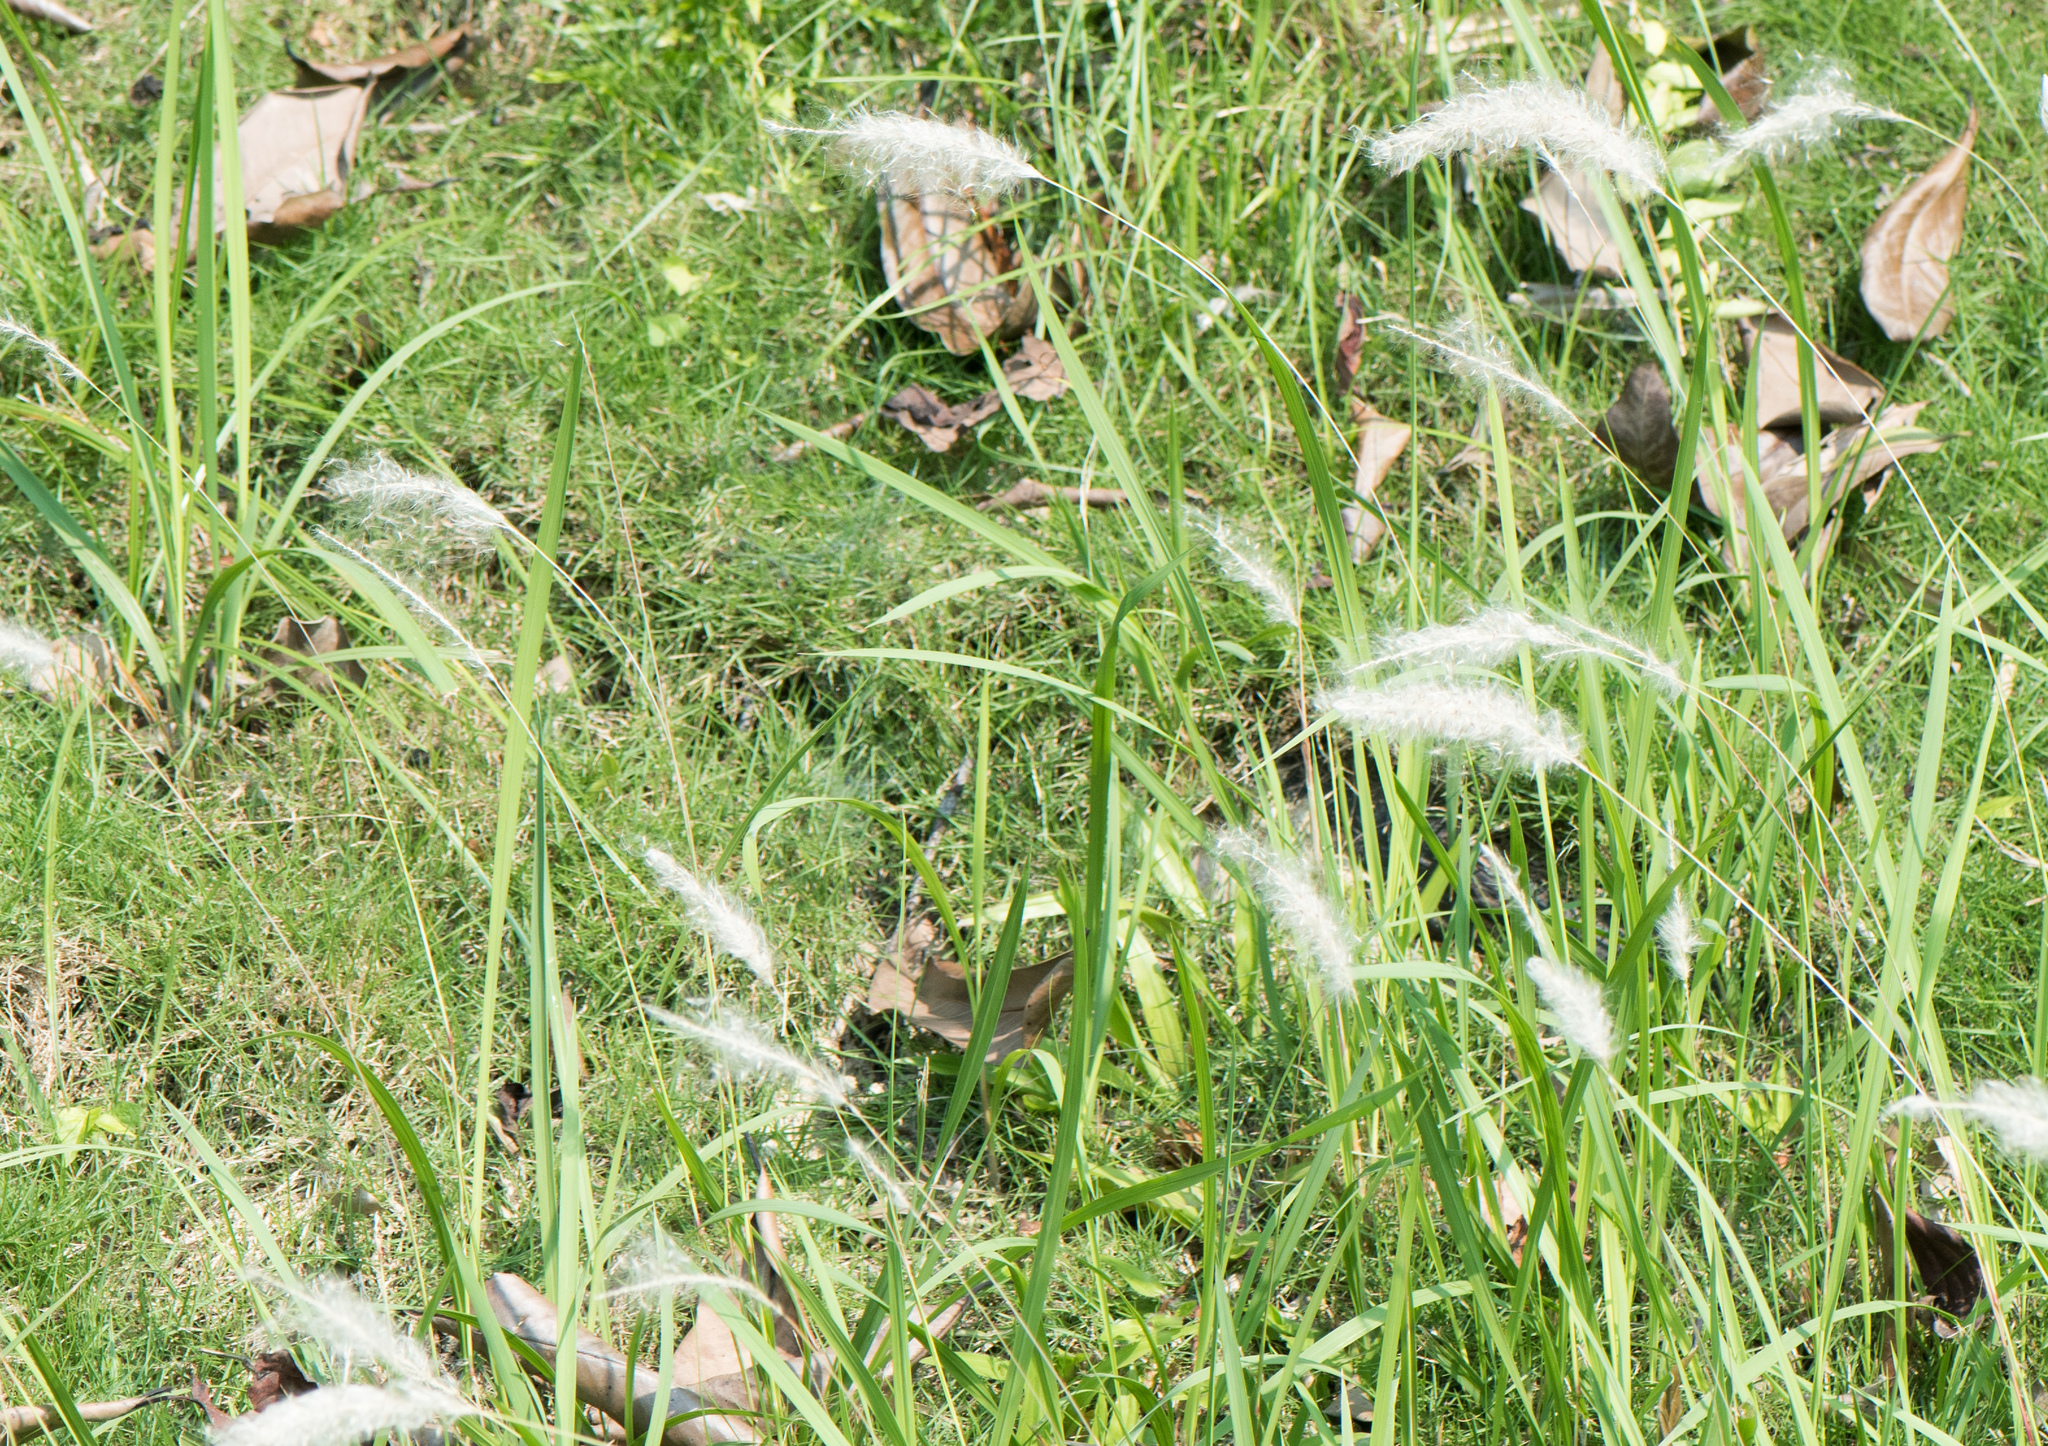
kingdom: Plantae
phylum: Tracheophyta
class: Liliopsida
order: Poales
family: Poaceae
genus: Imperata
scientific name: Imperata cylindrica
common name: Cogongrass
